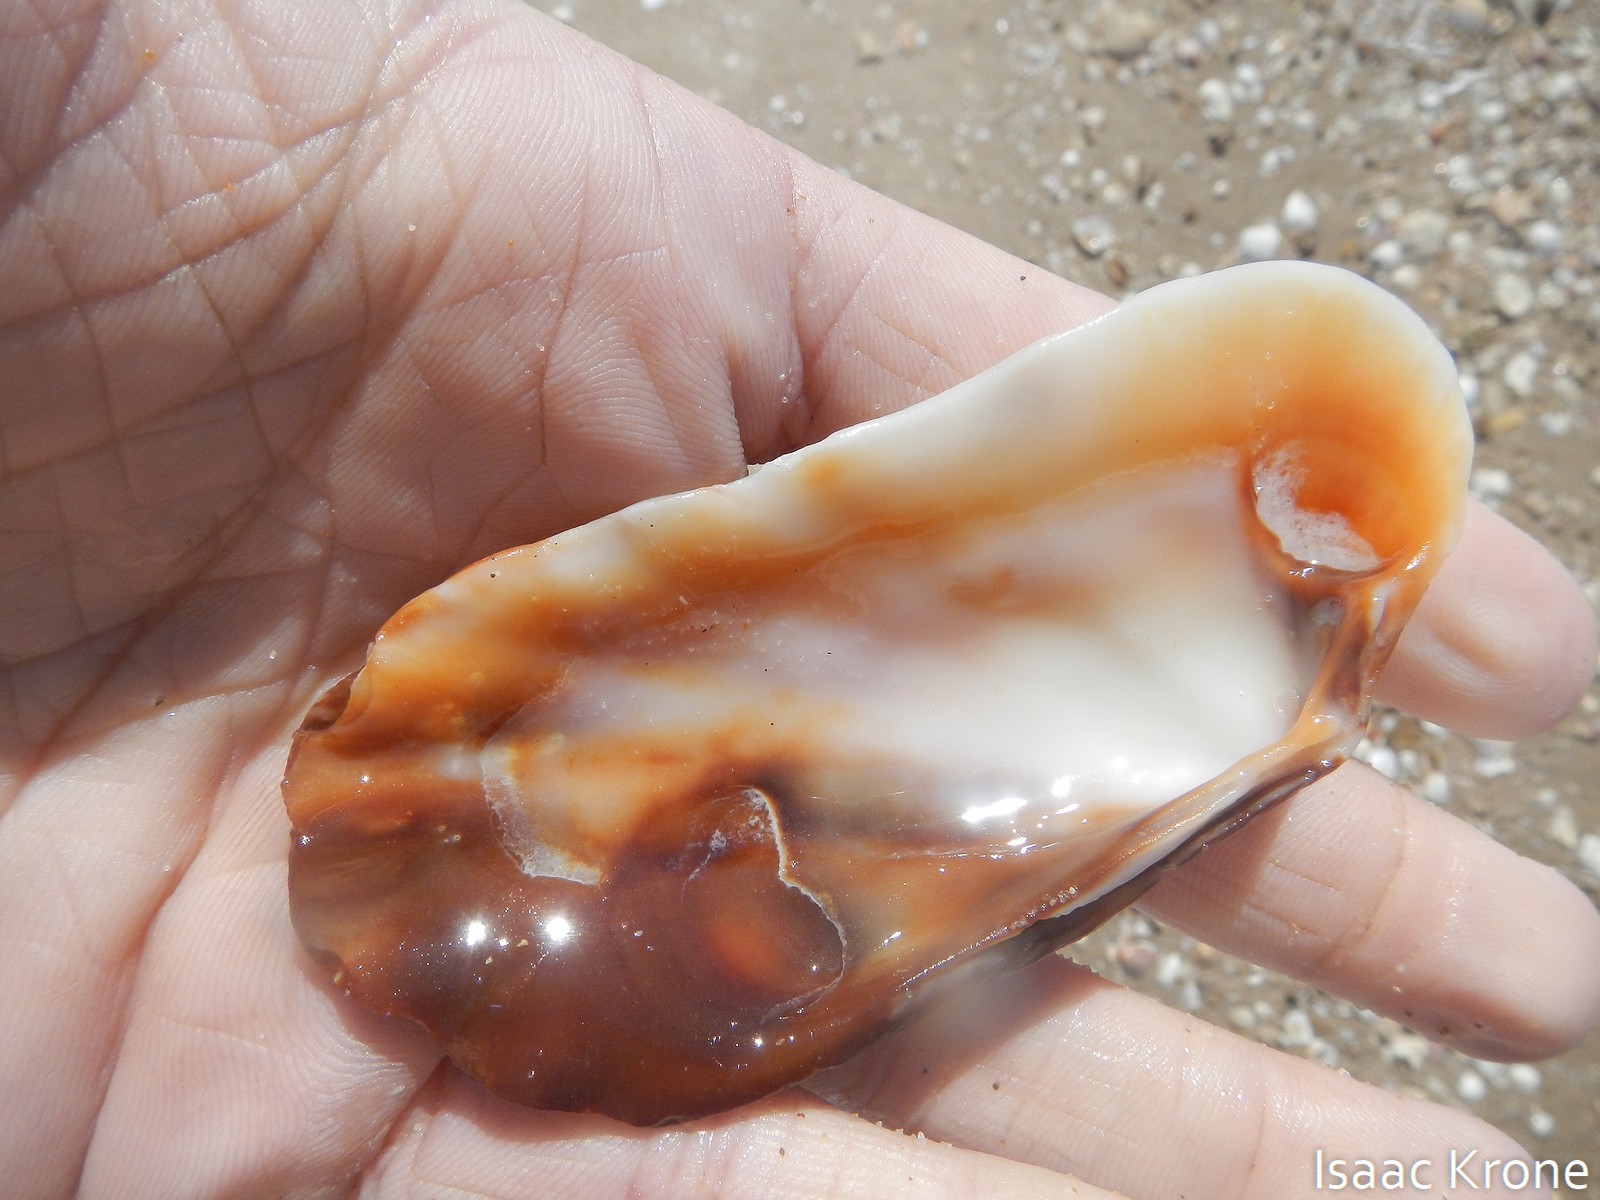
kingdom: Animalia
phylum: Mollusca
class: Bivalvia
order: Carditida
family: Carditidae
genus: Carditamera
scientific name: Carditamera bajaensis
